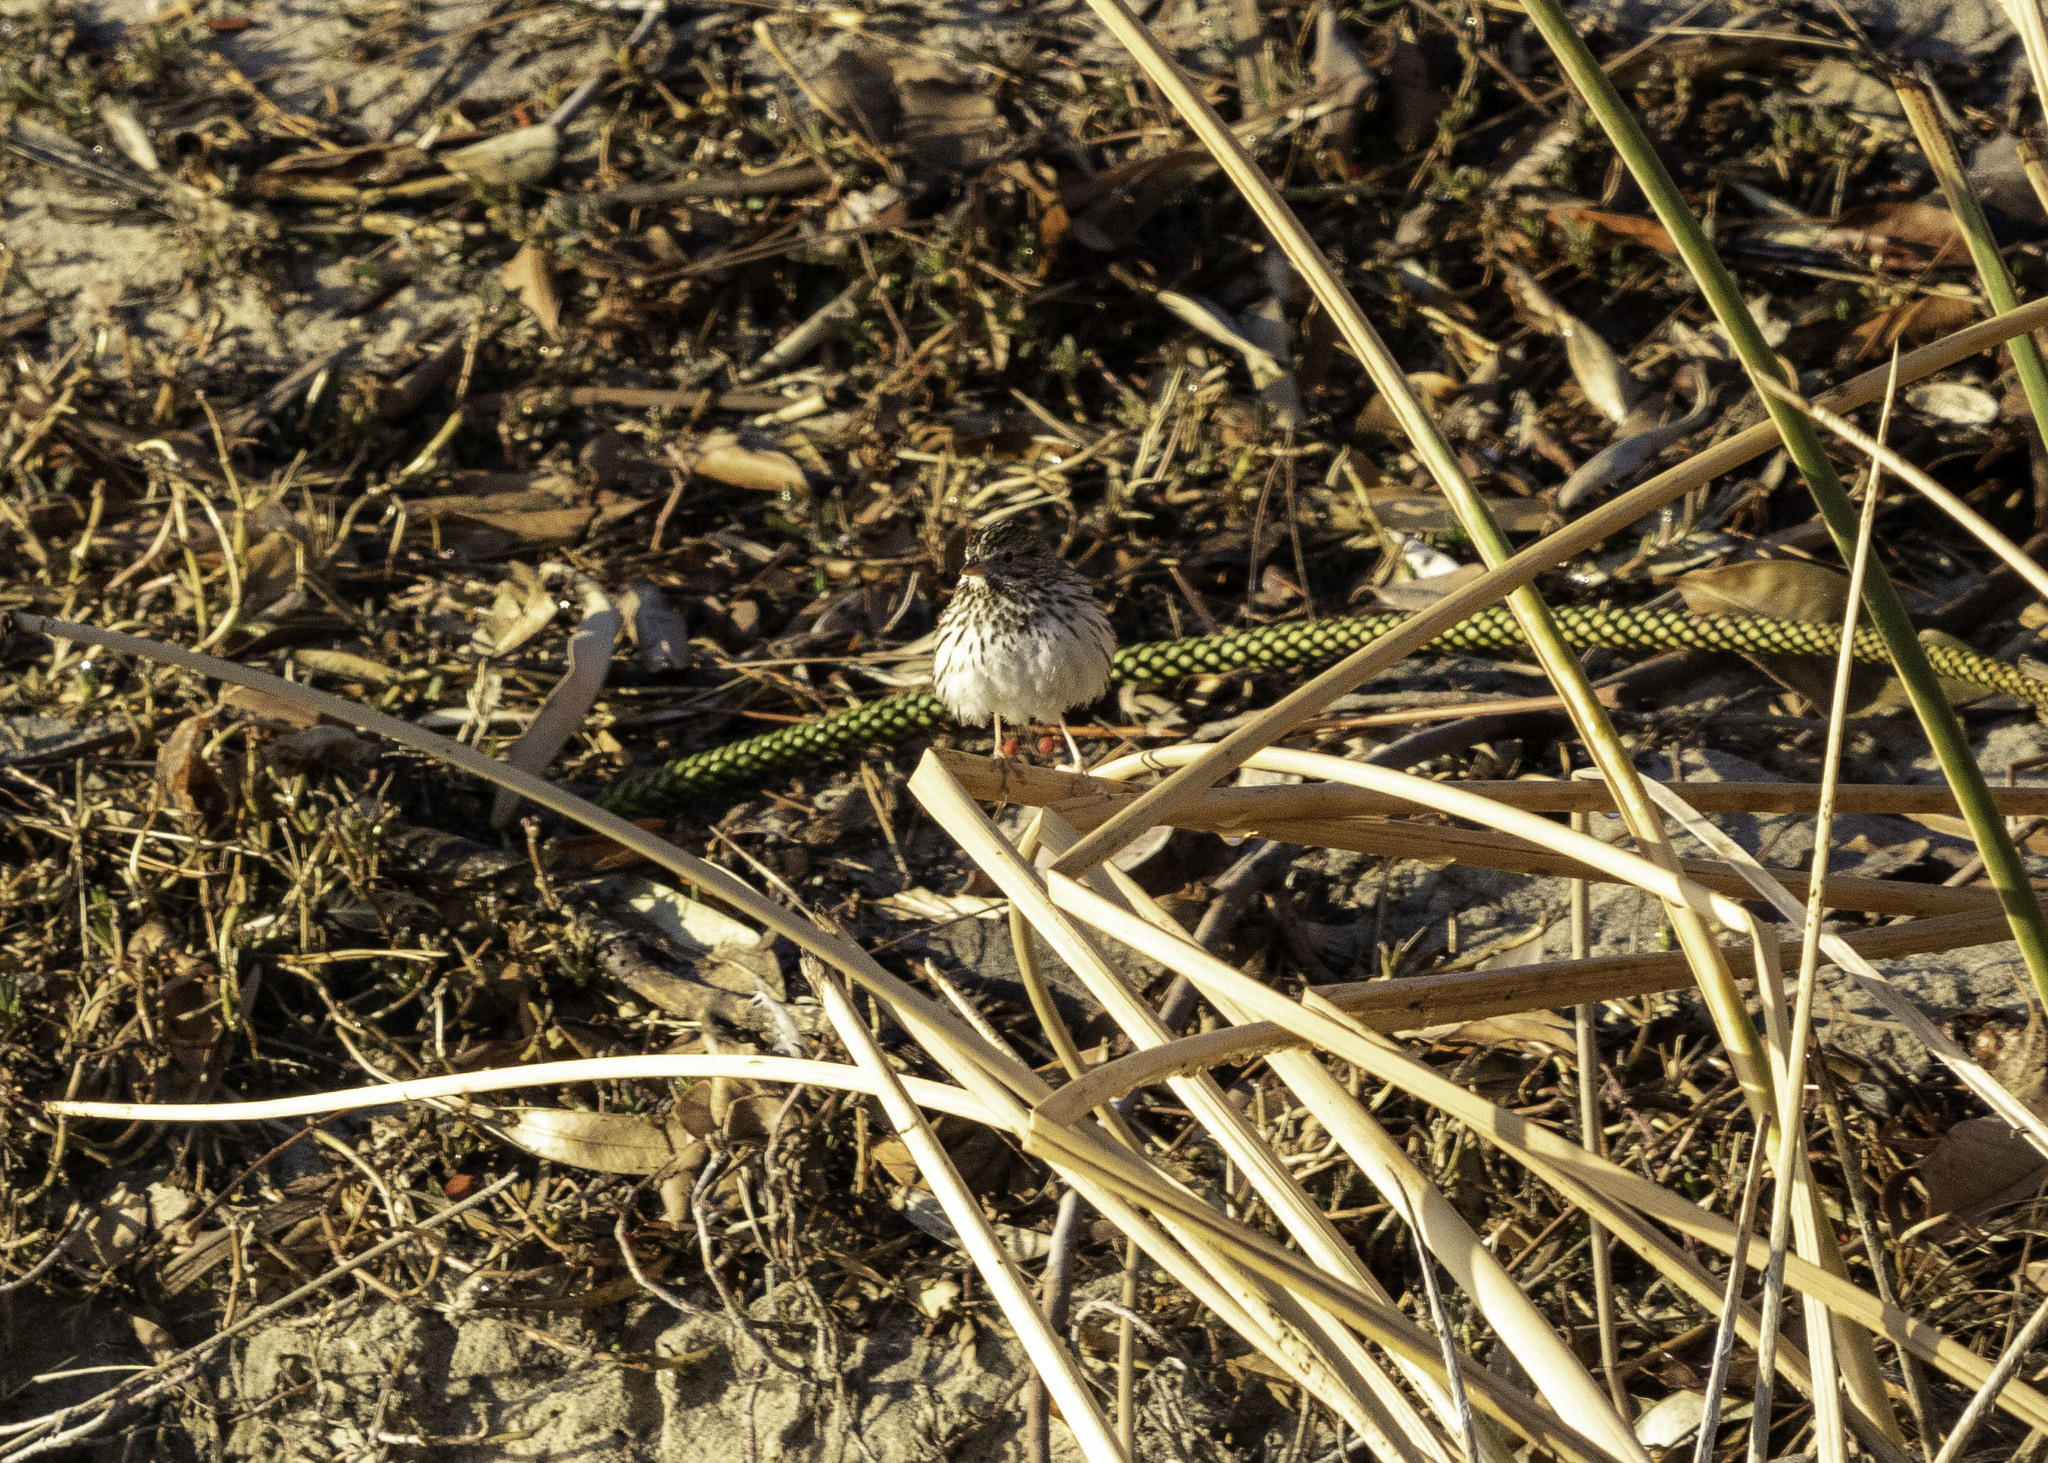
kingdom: Animalia
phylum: Chordata
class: Aves
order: Passeriformes
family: Passerellidae
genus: Passerculus
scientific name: Passerculus sandwichensis
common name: Savannah sparrow
